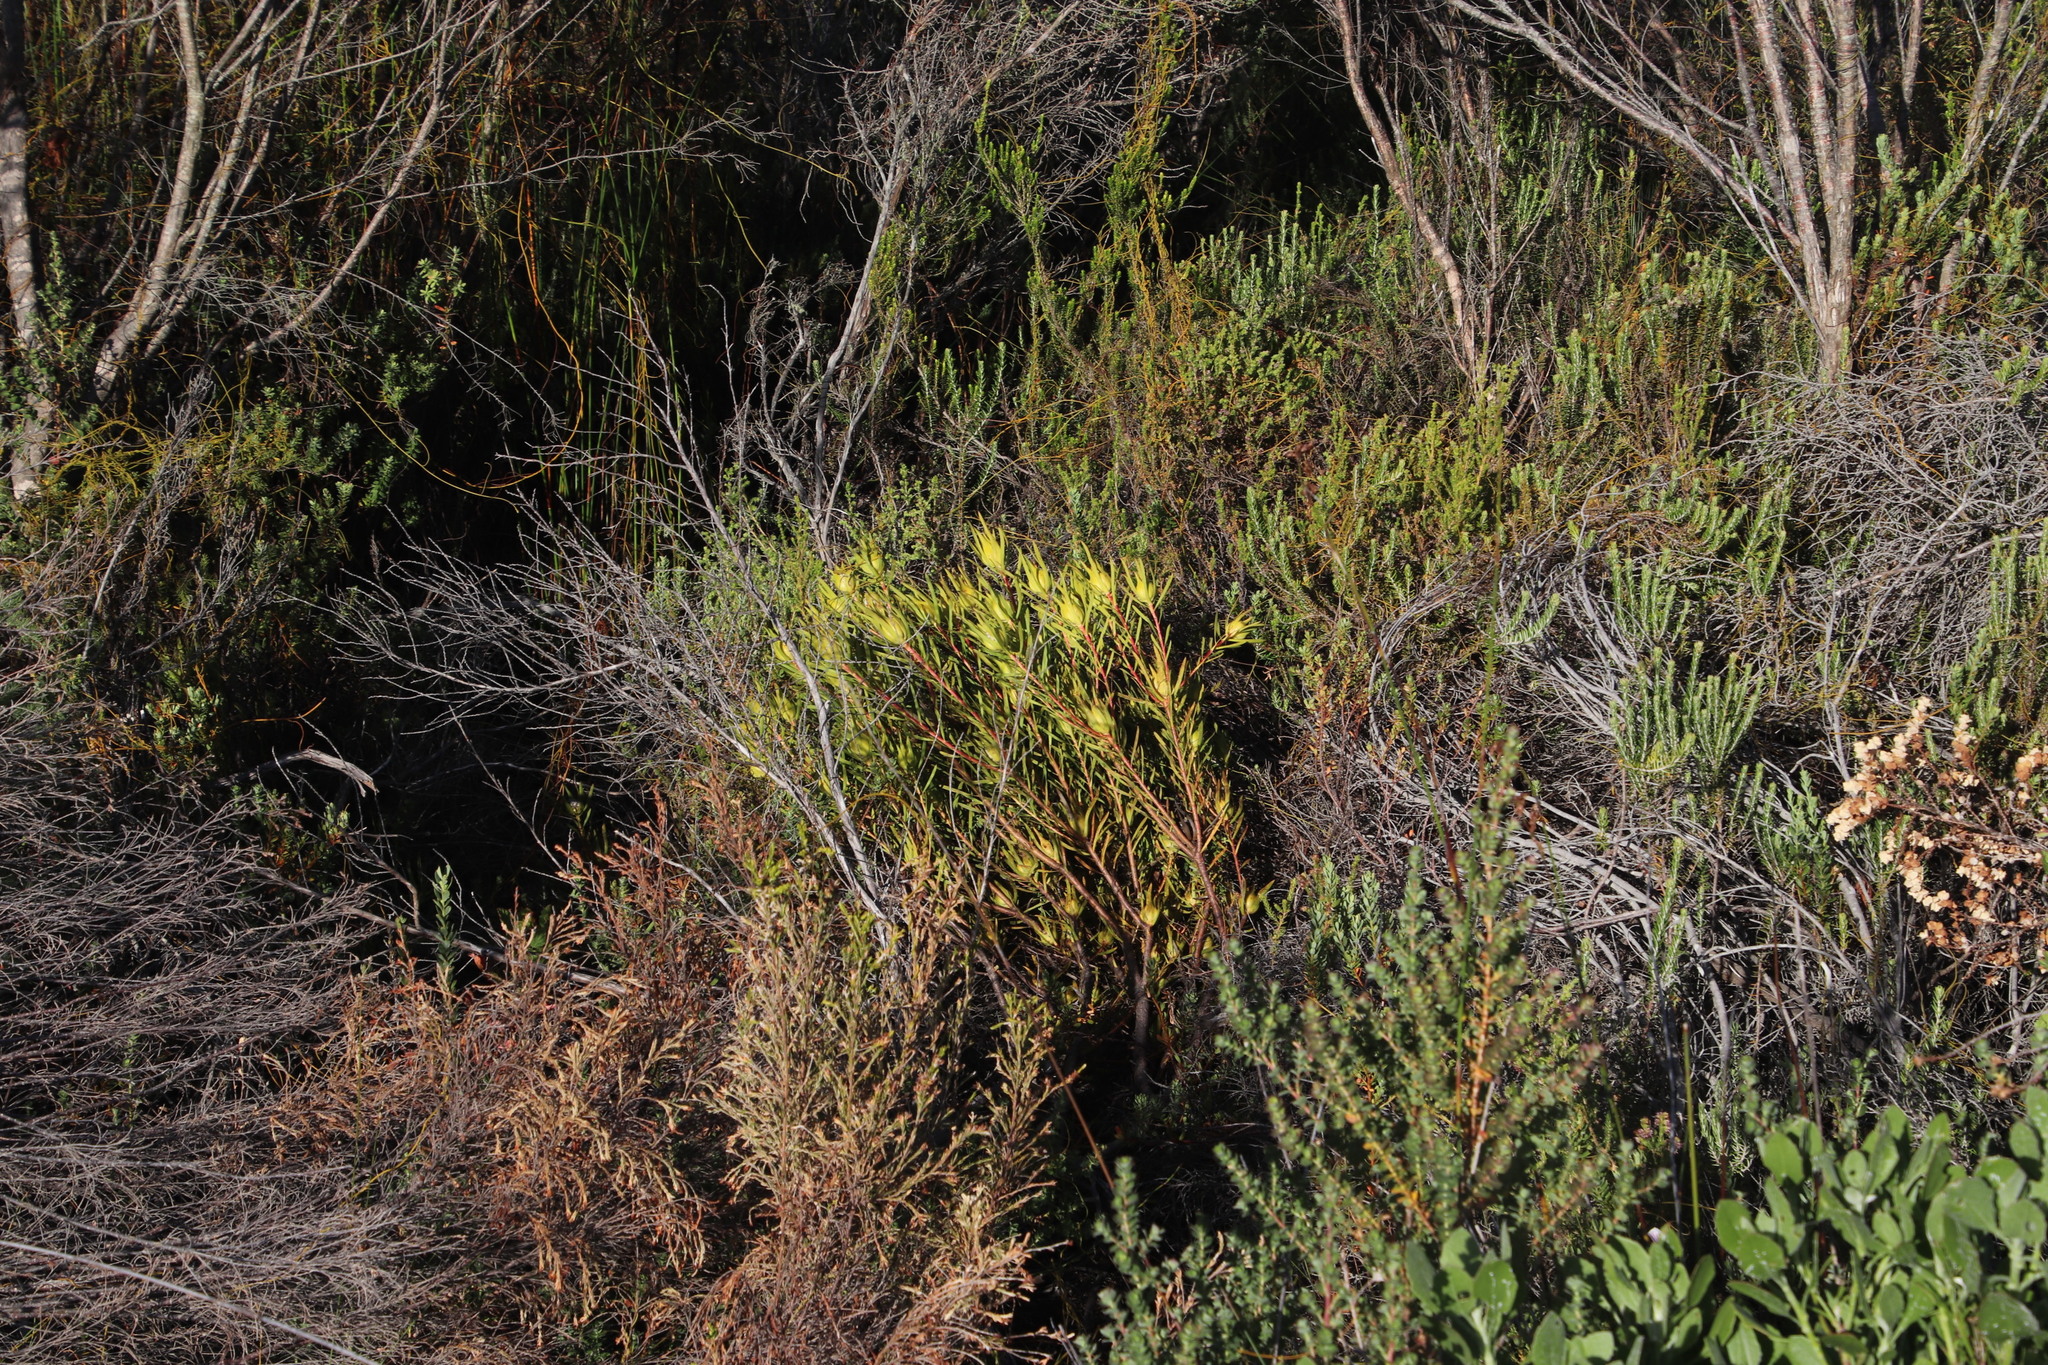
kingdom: Plantae
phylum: Tracheophyta
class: Magnoliopsida
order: Proteales
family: Proteaceae
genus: Leucadendron
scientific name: Leucadendron salignum
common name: Common sunshine conebush
